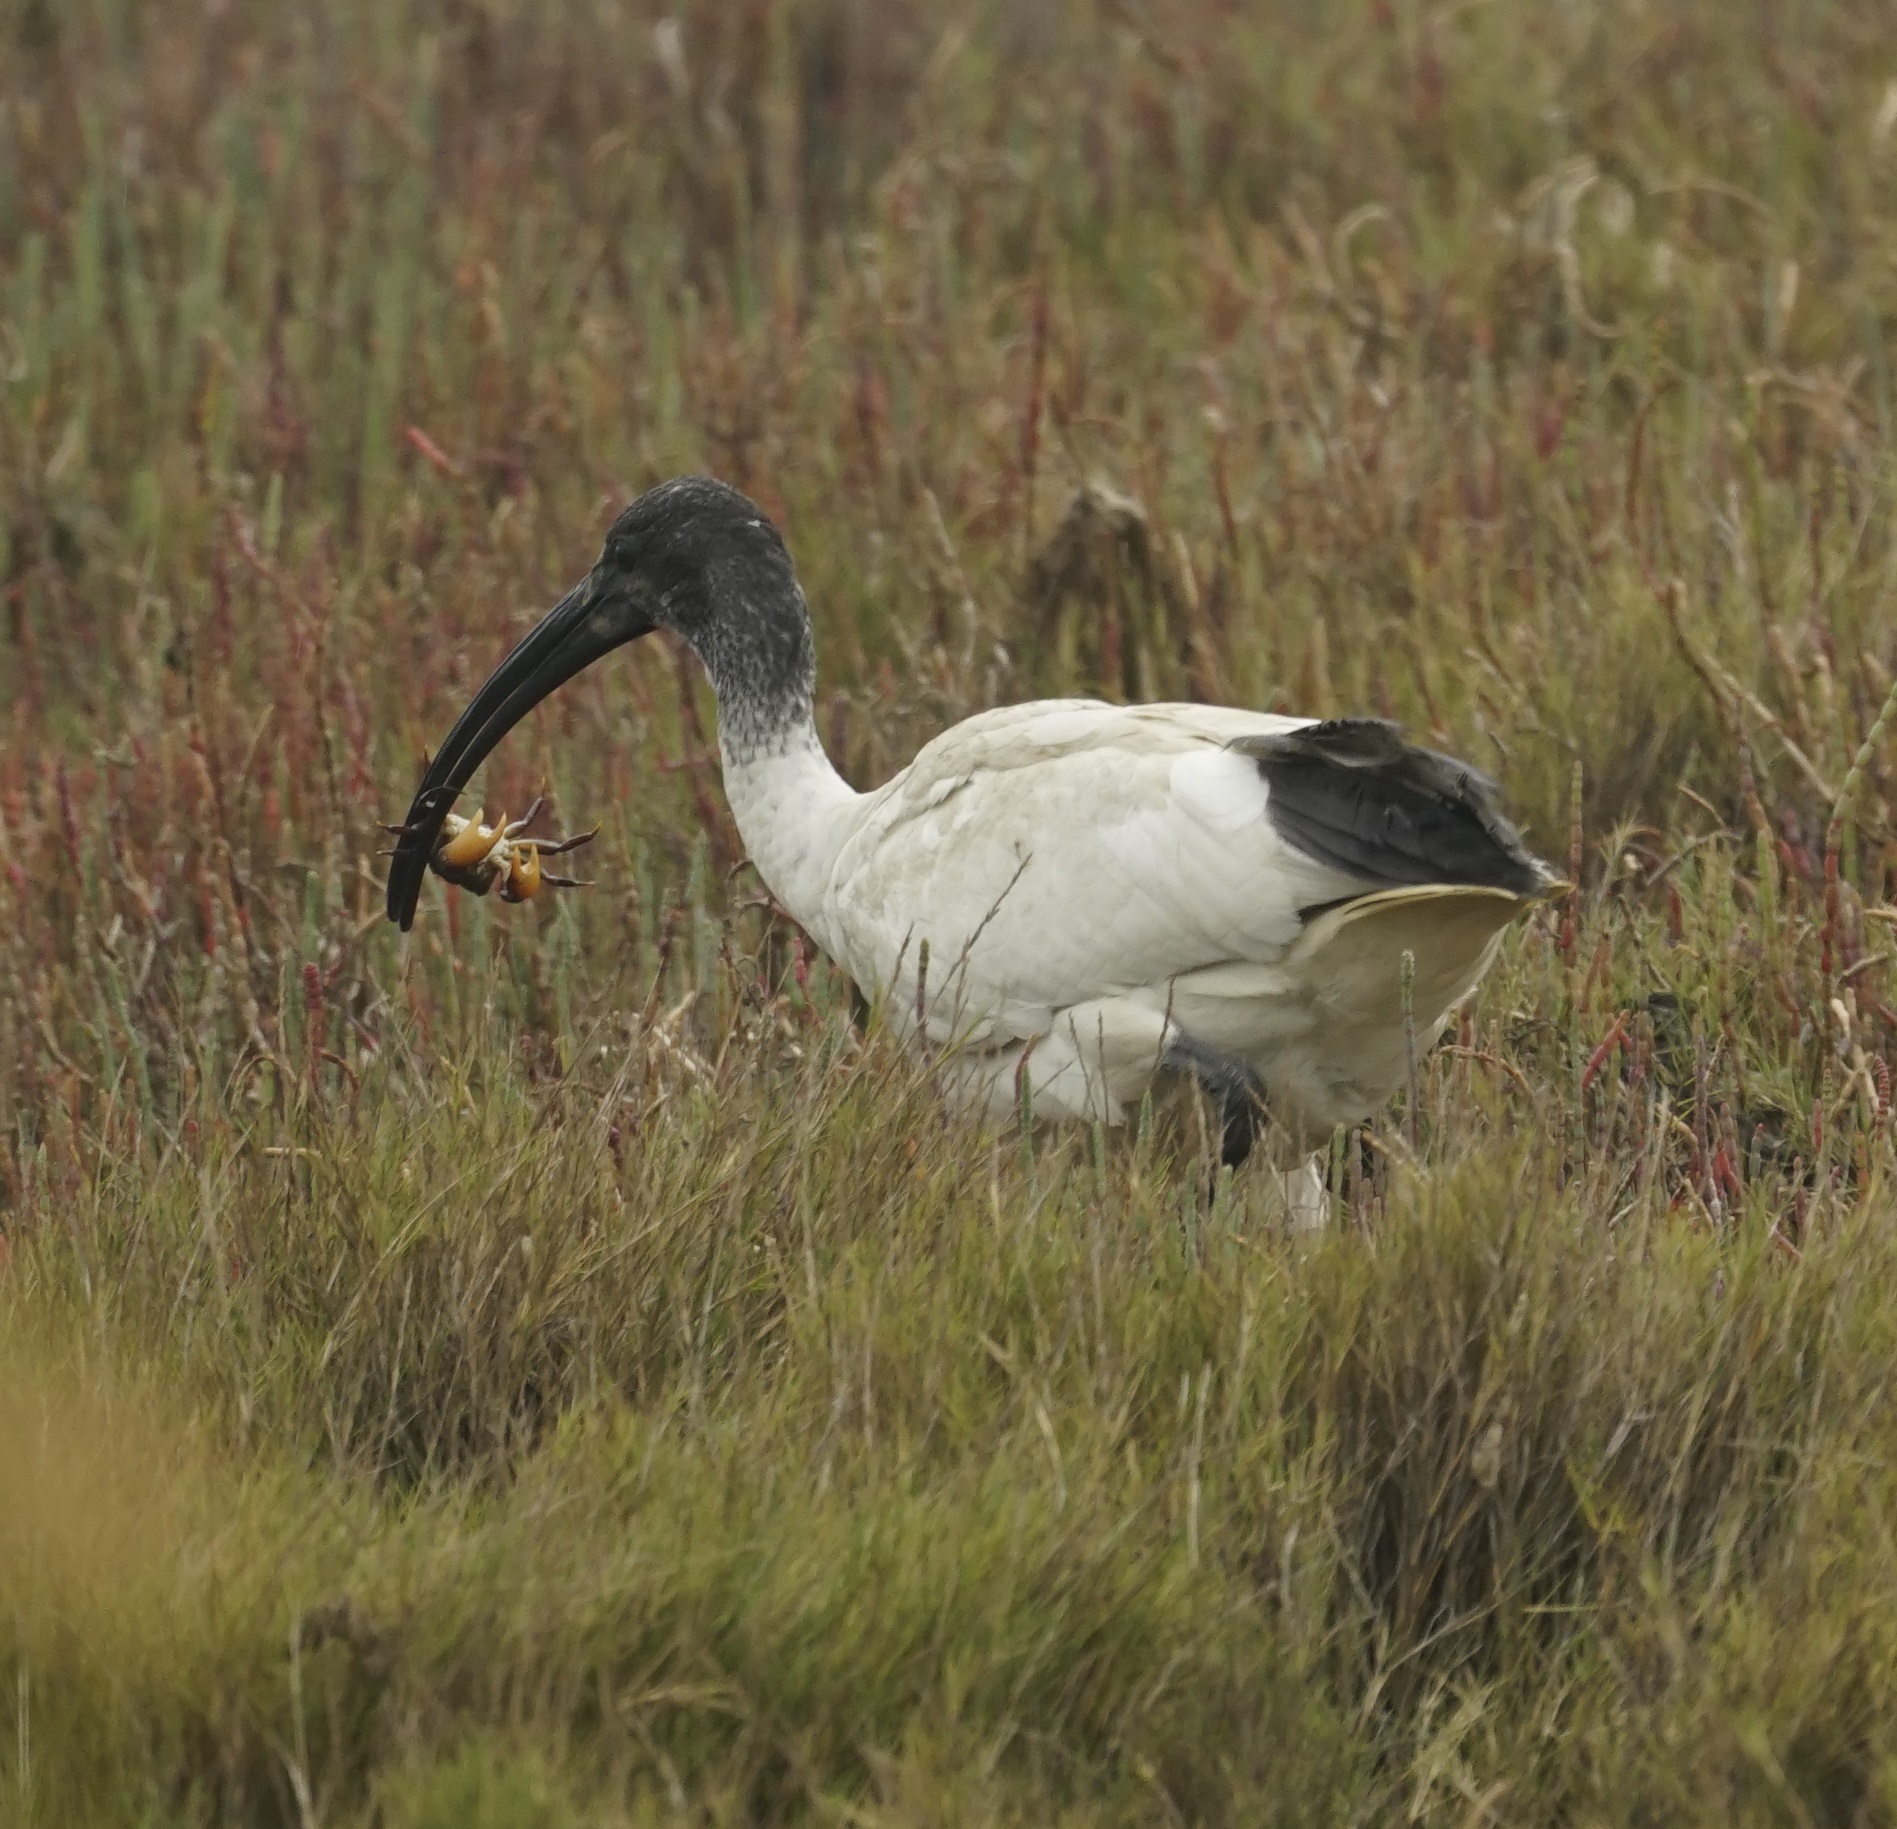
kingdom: Animalia
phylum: Chordata
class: Aves
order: Pelecaniformes
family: Threskiornithidae
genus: Threskiornis
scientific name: Threskiornis molucca
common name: Australian white ibis
